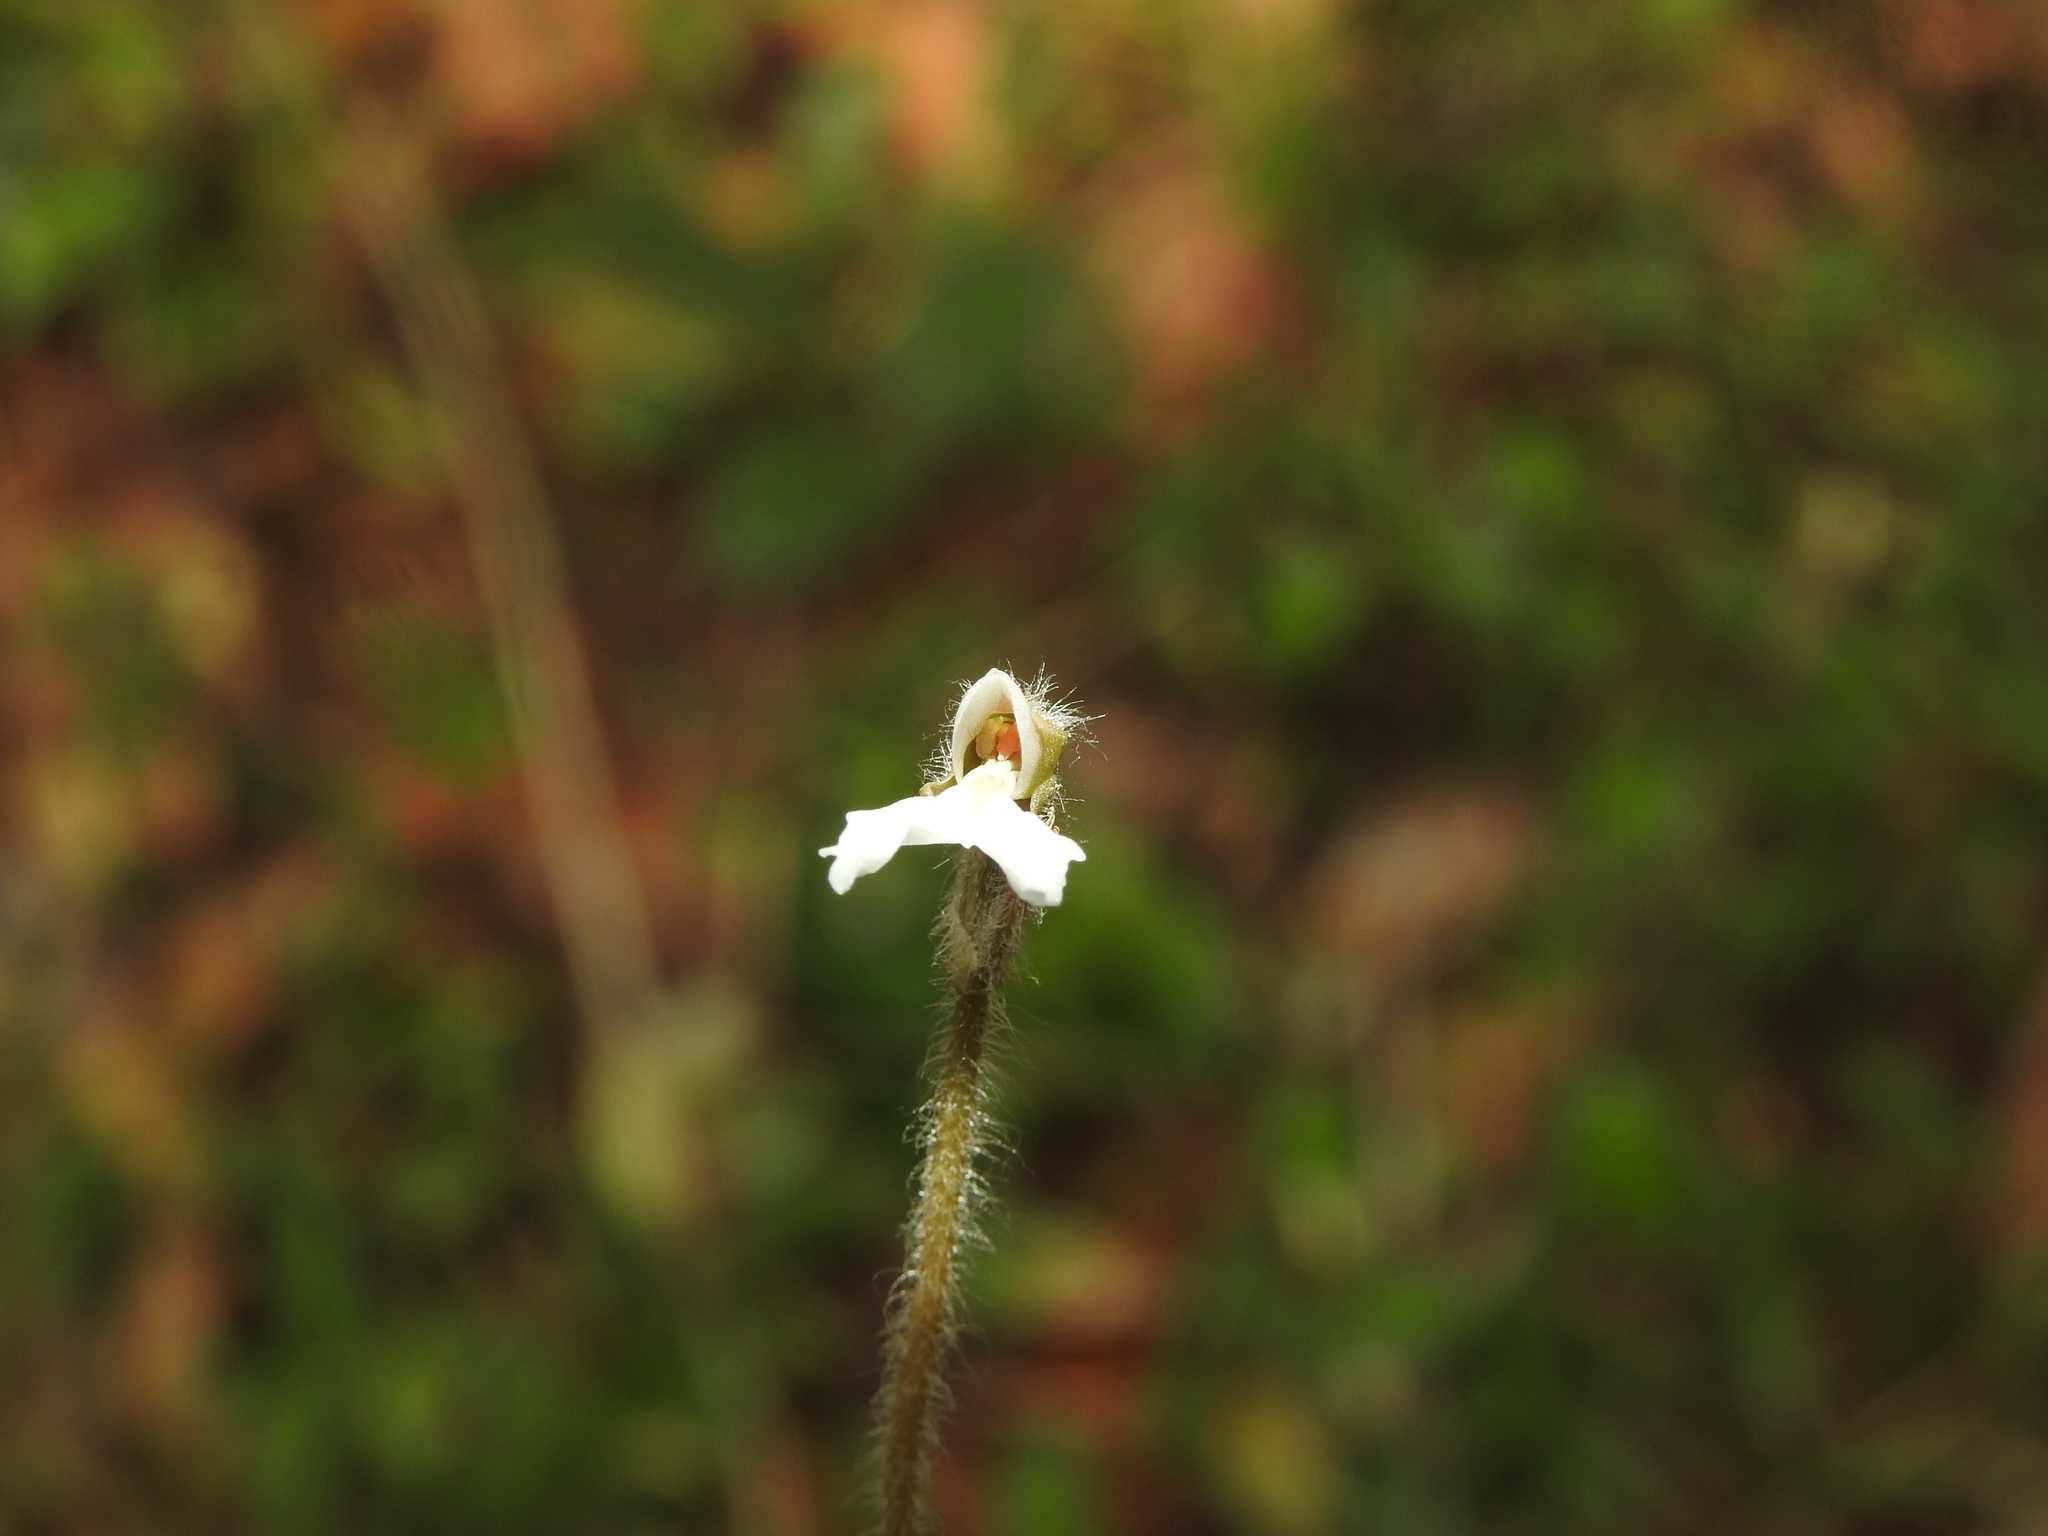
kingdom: Plantae
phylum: Tracheophyta
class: Liliopsida
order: Asparagales
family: Orchidaceae
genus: Zeuxine
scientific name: Zeuxine longilabris
